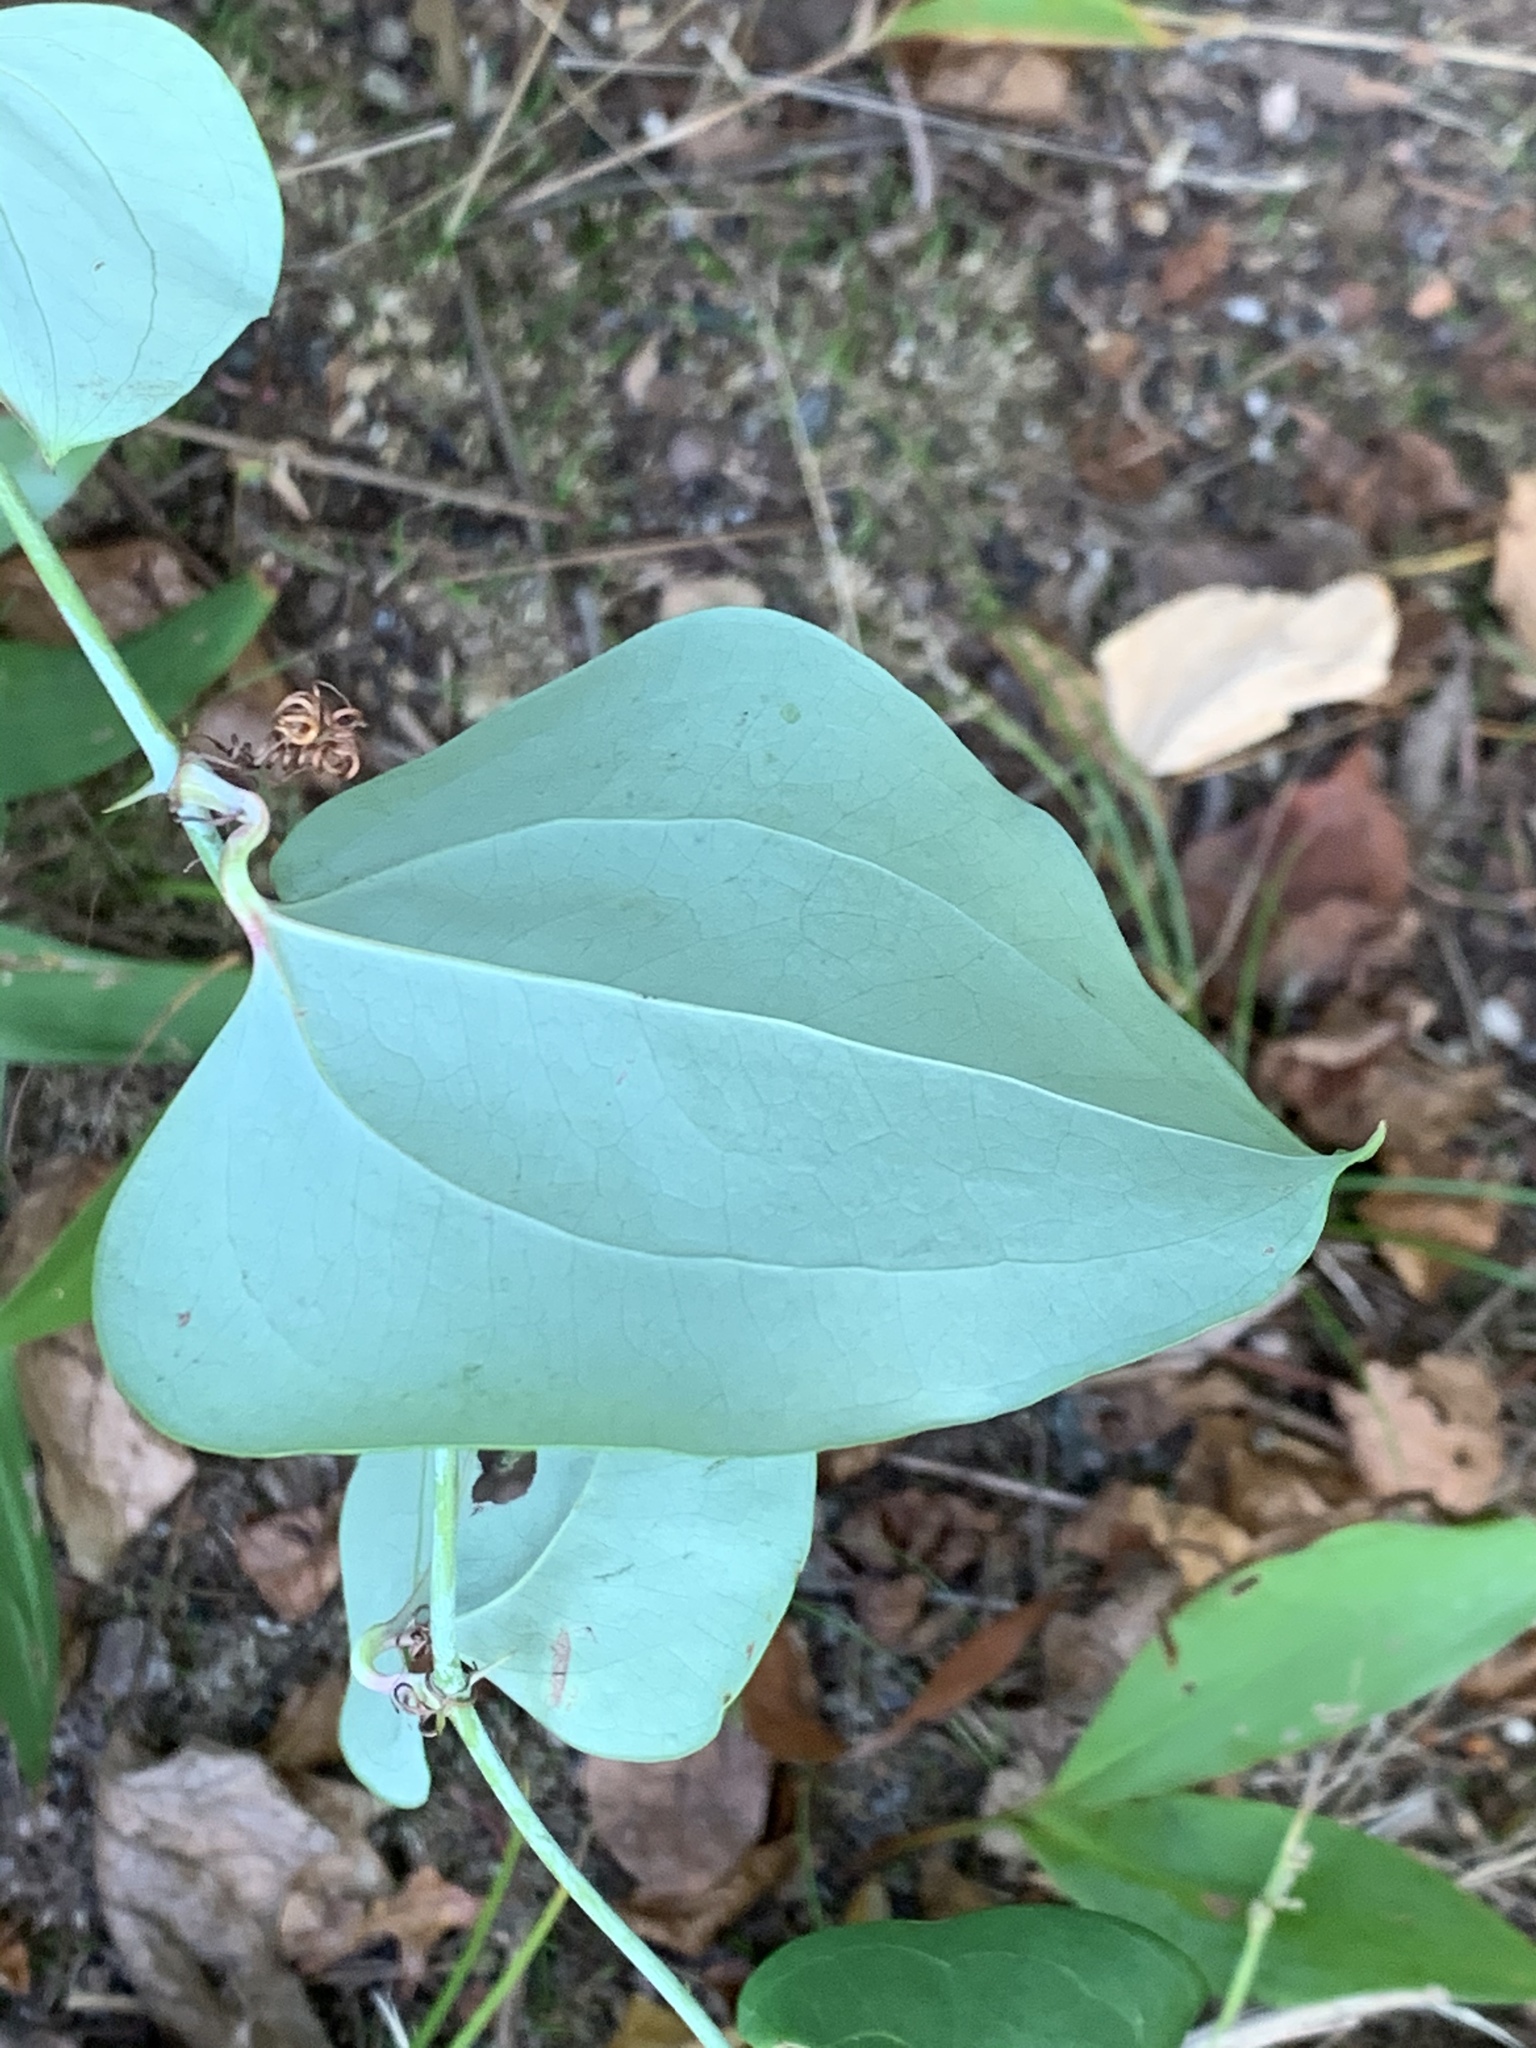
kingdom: Plantae
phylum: Tracheophyta
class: Liliopsida
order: Liliales
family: Smilacaceae
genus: Smilax
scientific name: Smilax glauca
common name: Cat greenbrier
